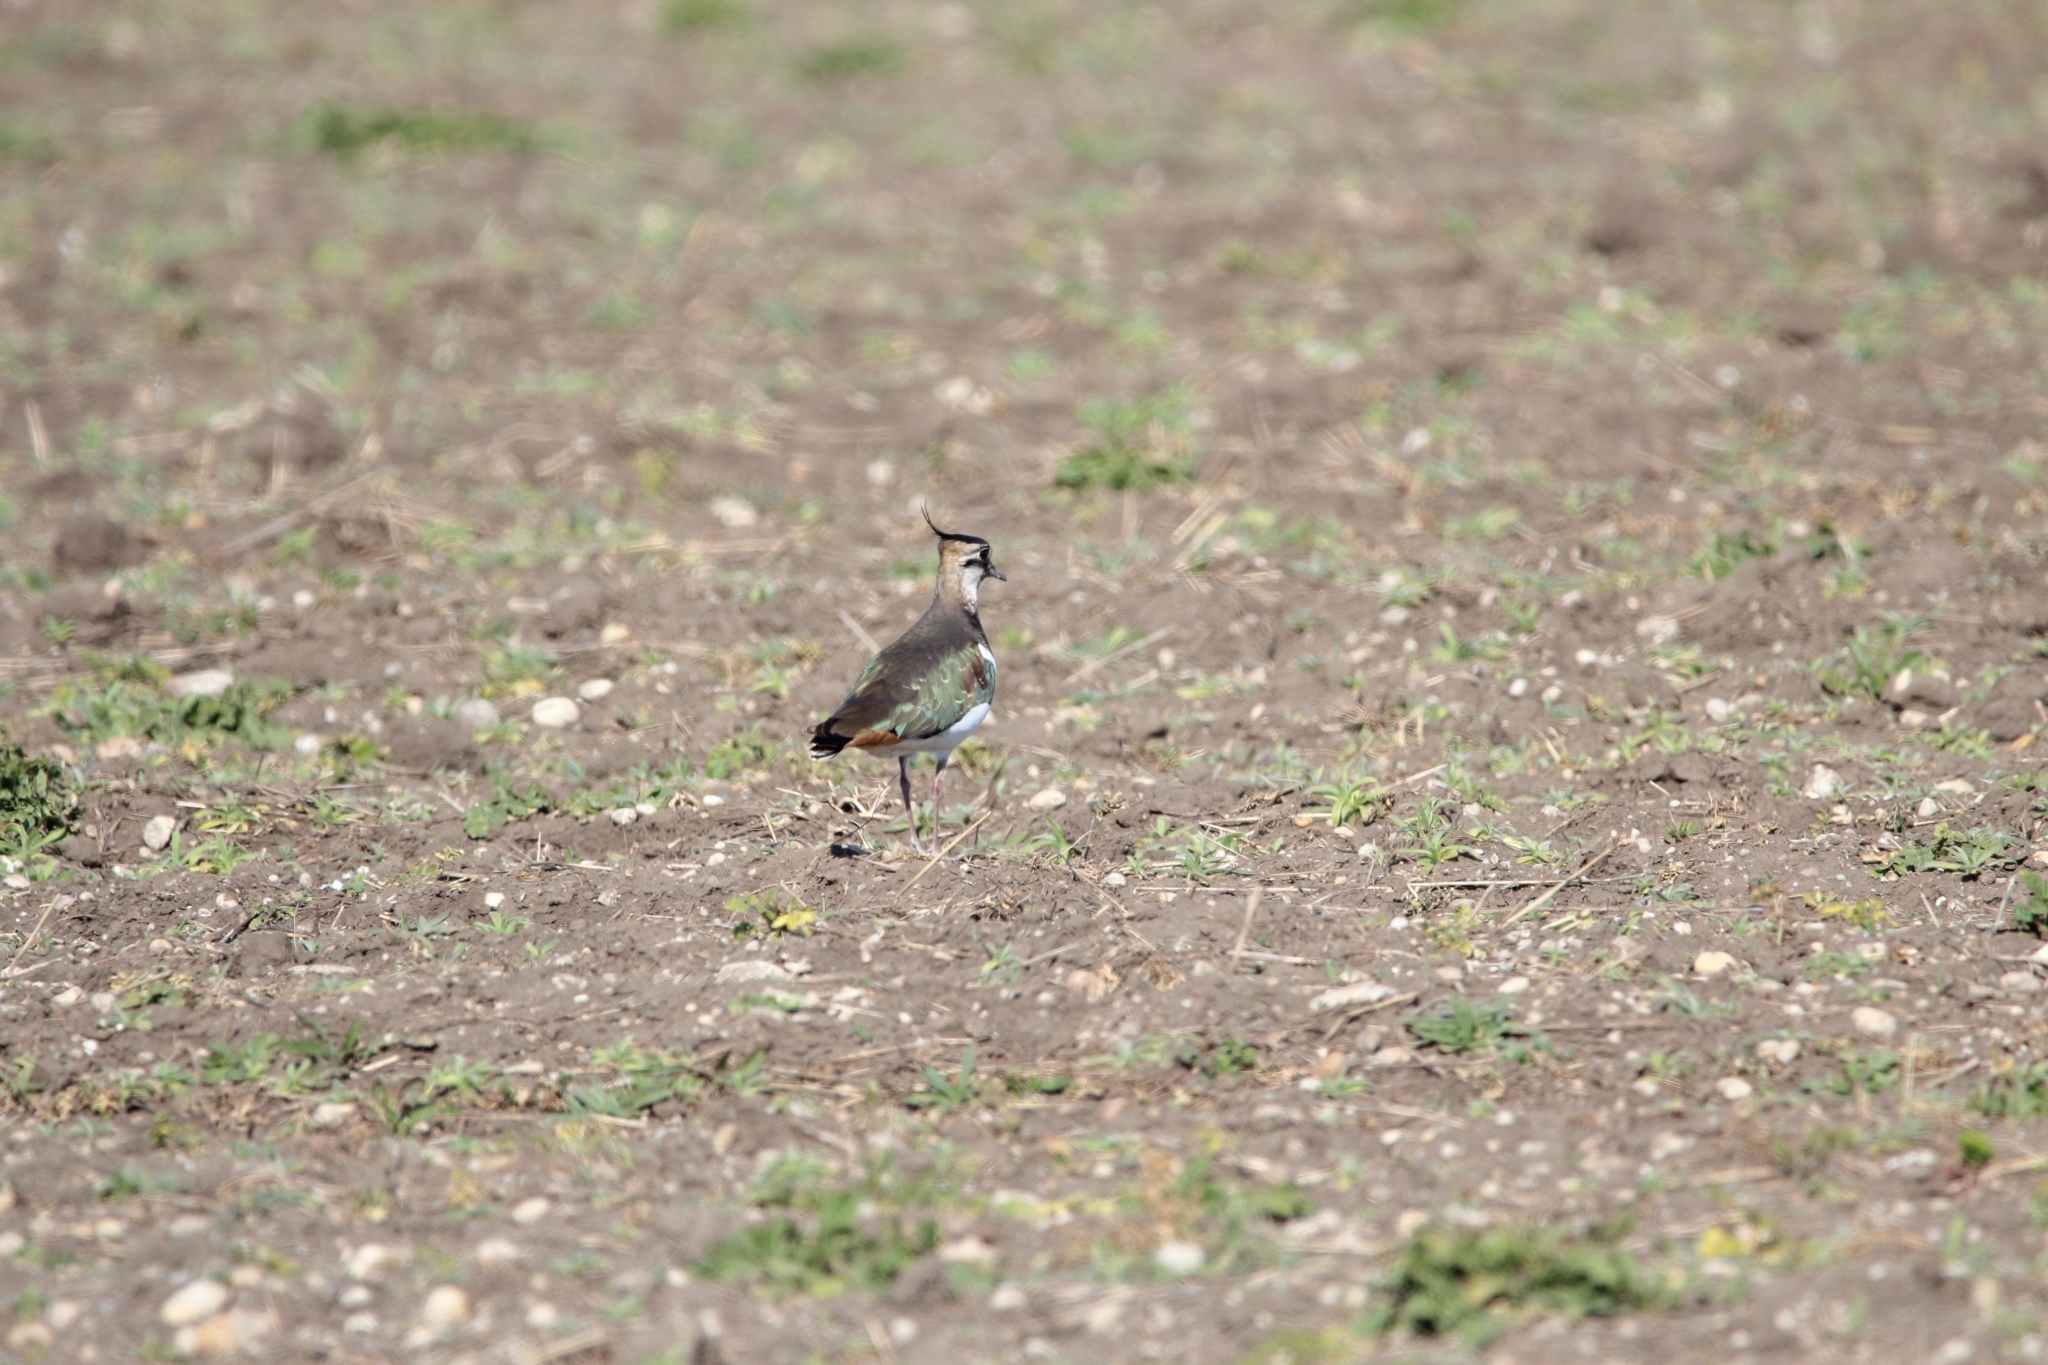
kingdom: Animalia
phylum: Chordata
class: Aves
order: Charadriiformes
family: Charadriidae
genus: Vanellus
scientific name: Vanellus vanellus
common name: Northern lapwing
